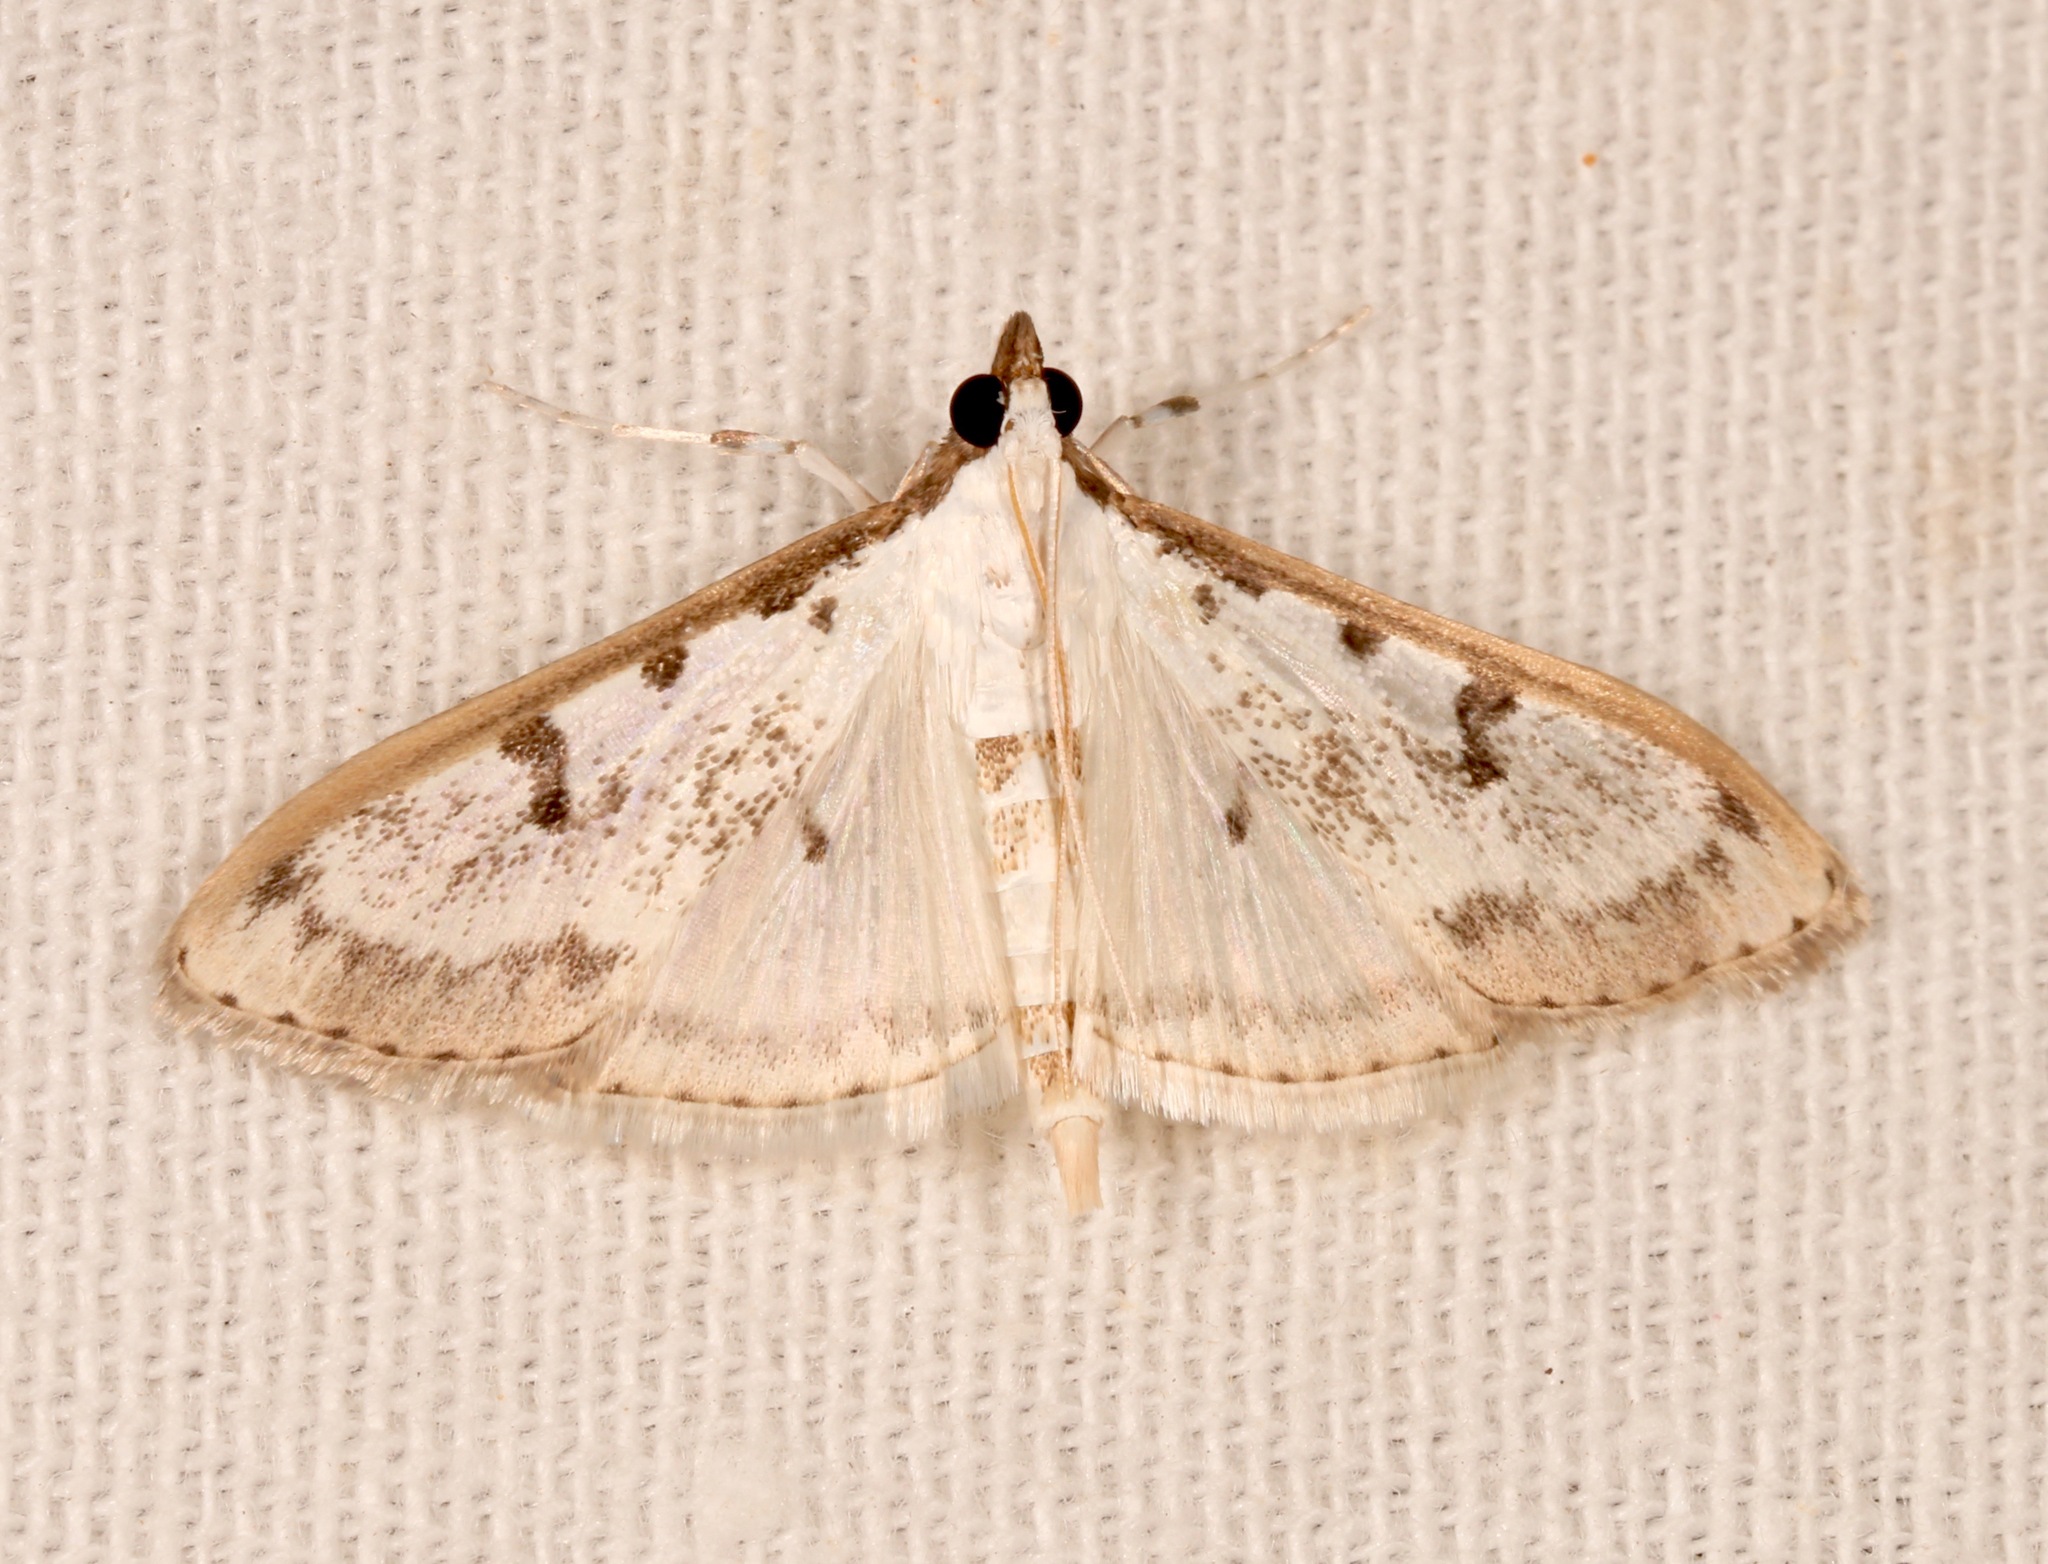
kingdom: Animalia
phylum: Arthropoda
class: Insecta
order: Lepidoptera
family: Crambidae
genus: Palpita
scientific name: Palpita gracilalis
